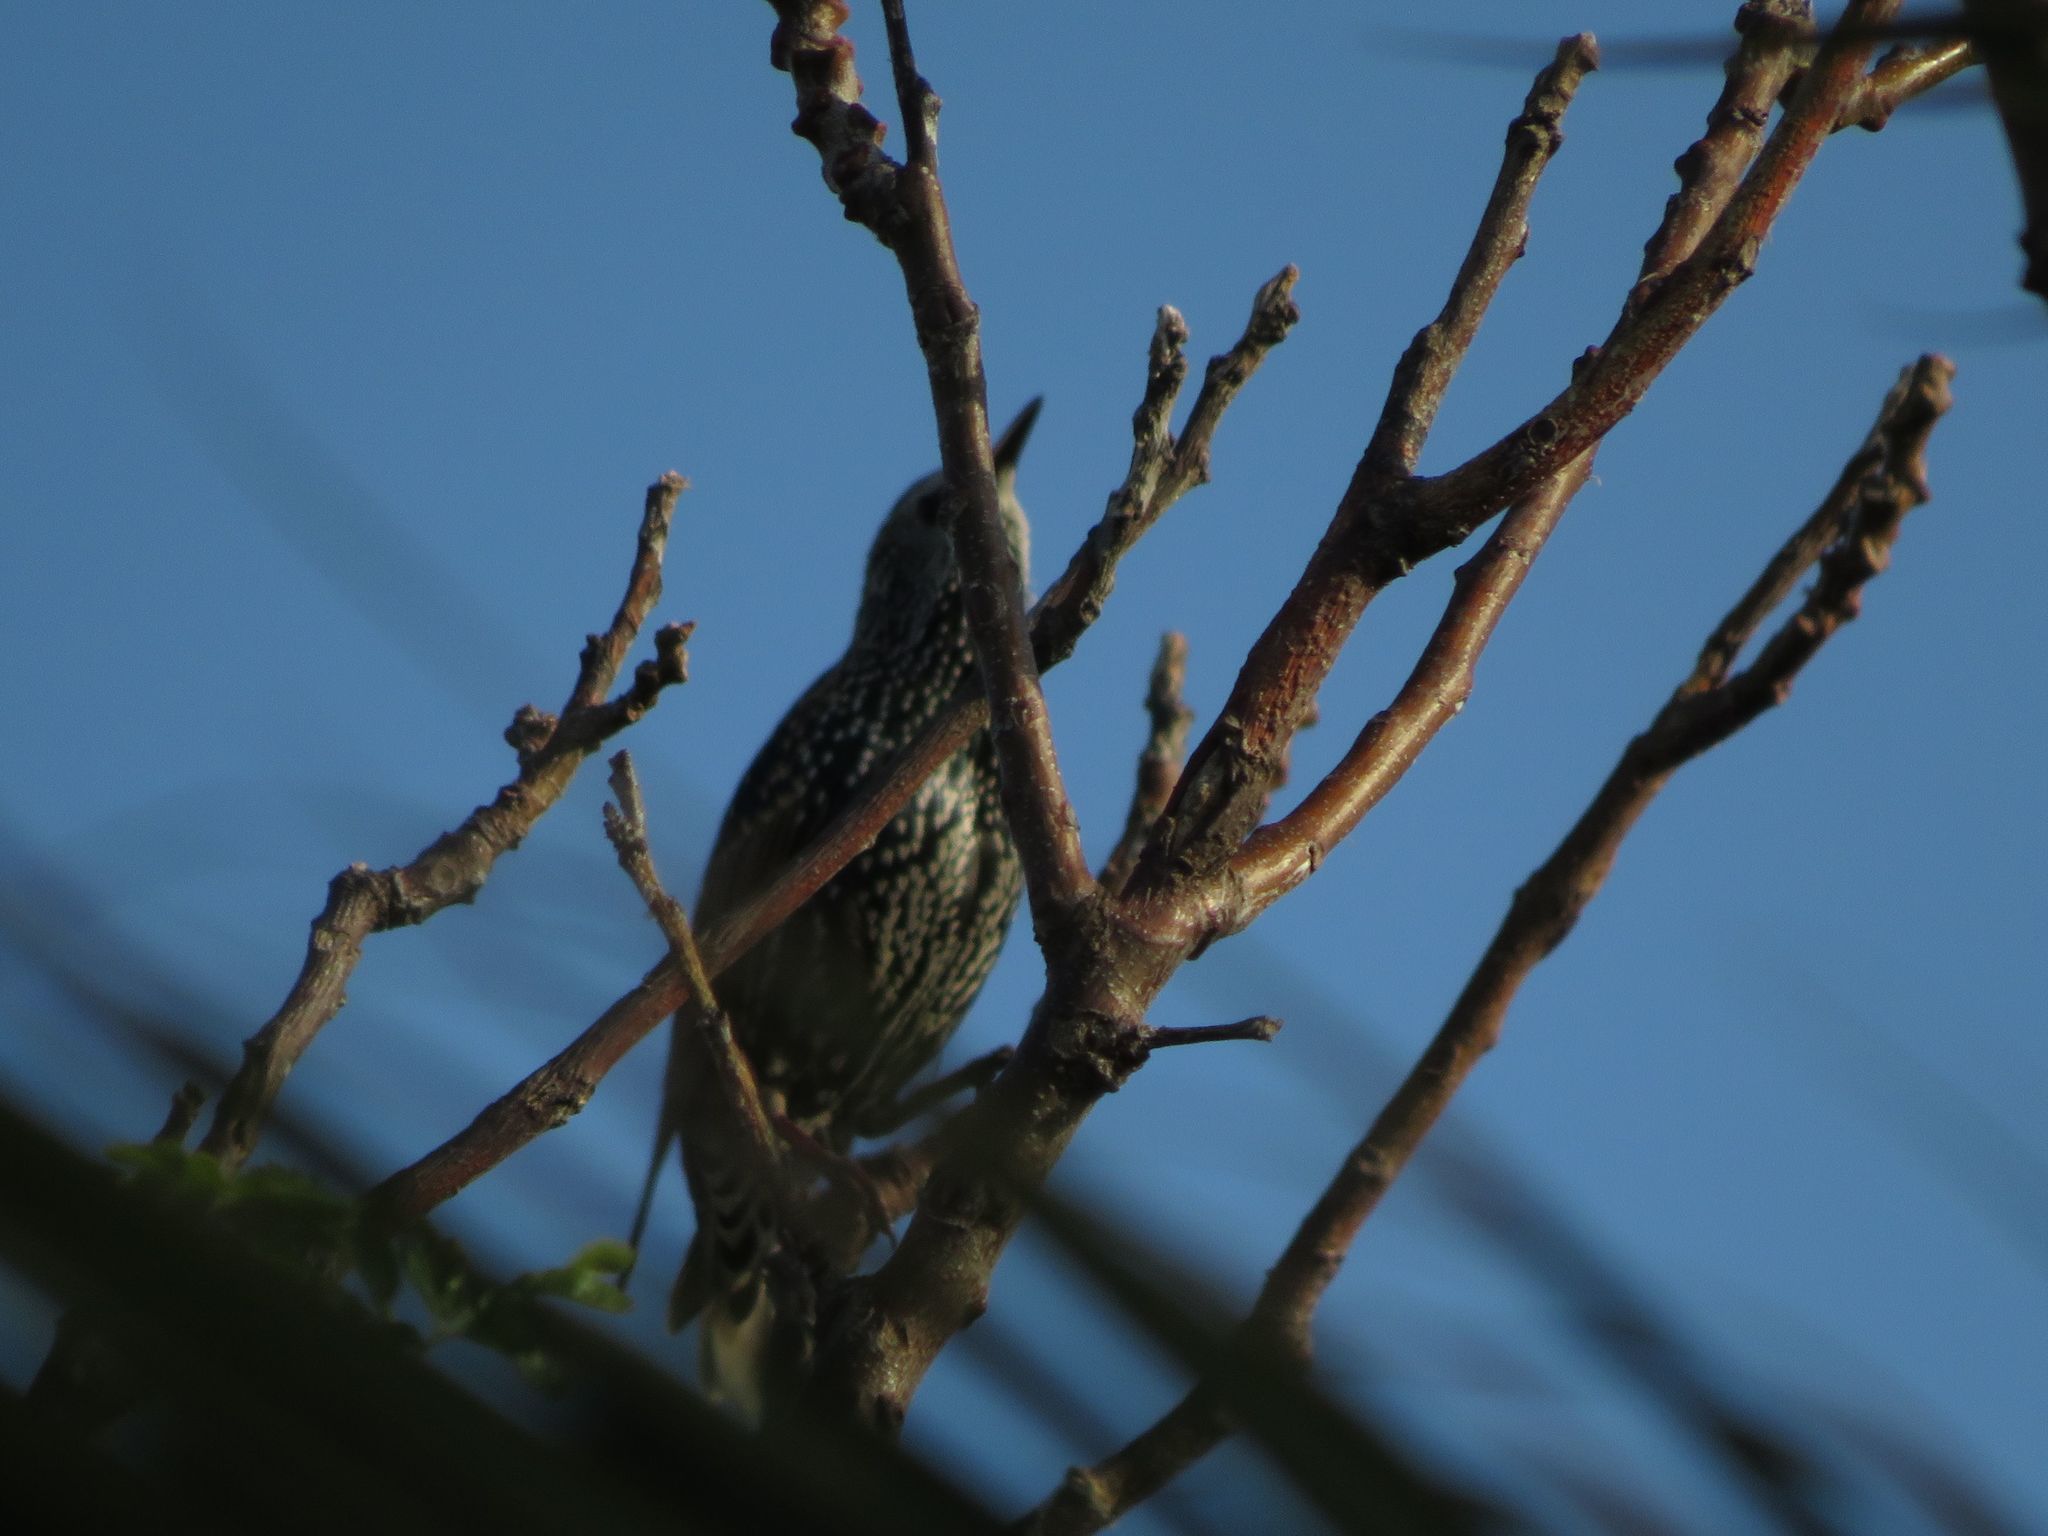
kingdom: Animalia
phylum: Chordata
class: Aves
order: Passeriformes
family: Sturnidae
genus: Sturnus
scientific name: Sturnus vulgaris
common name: Common starling
